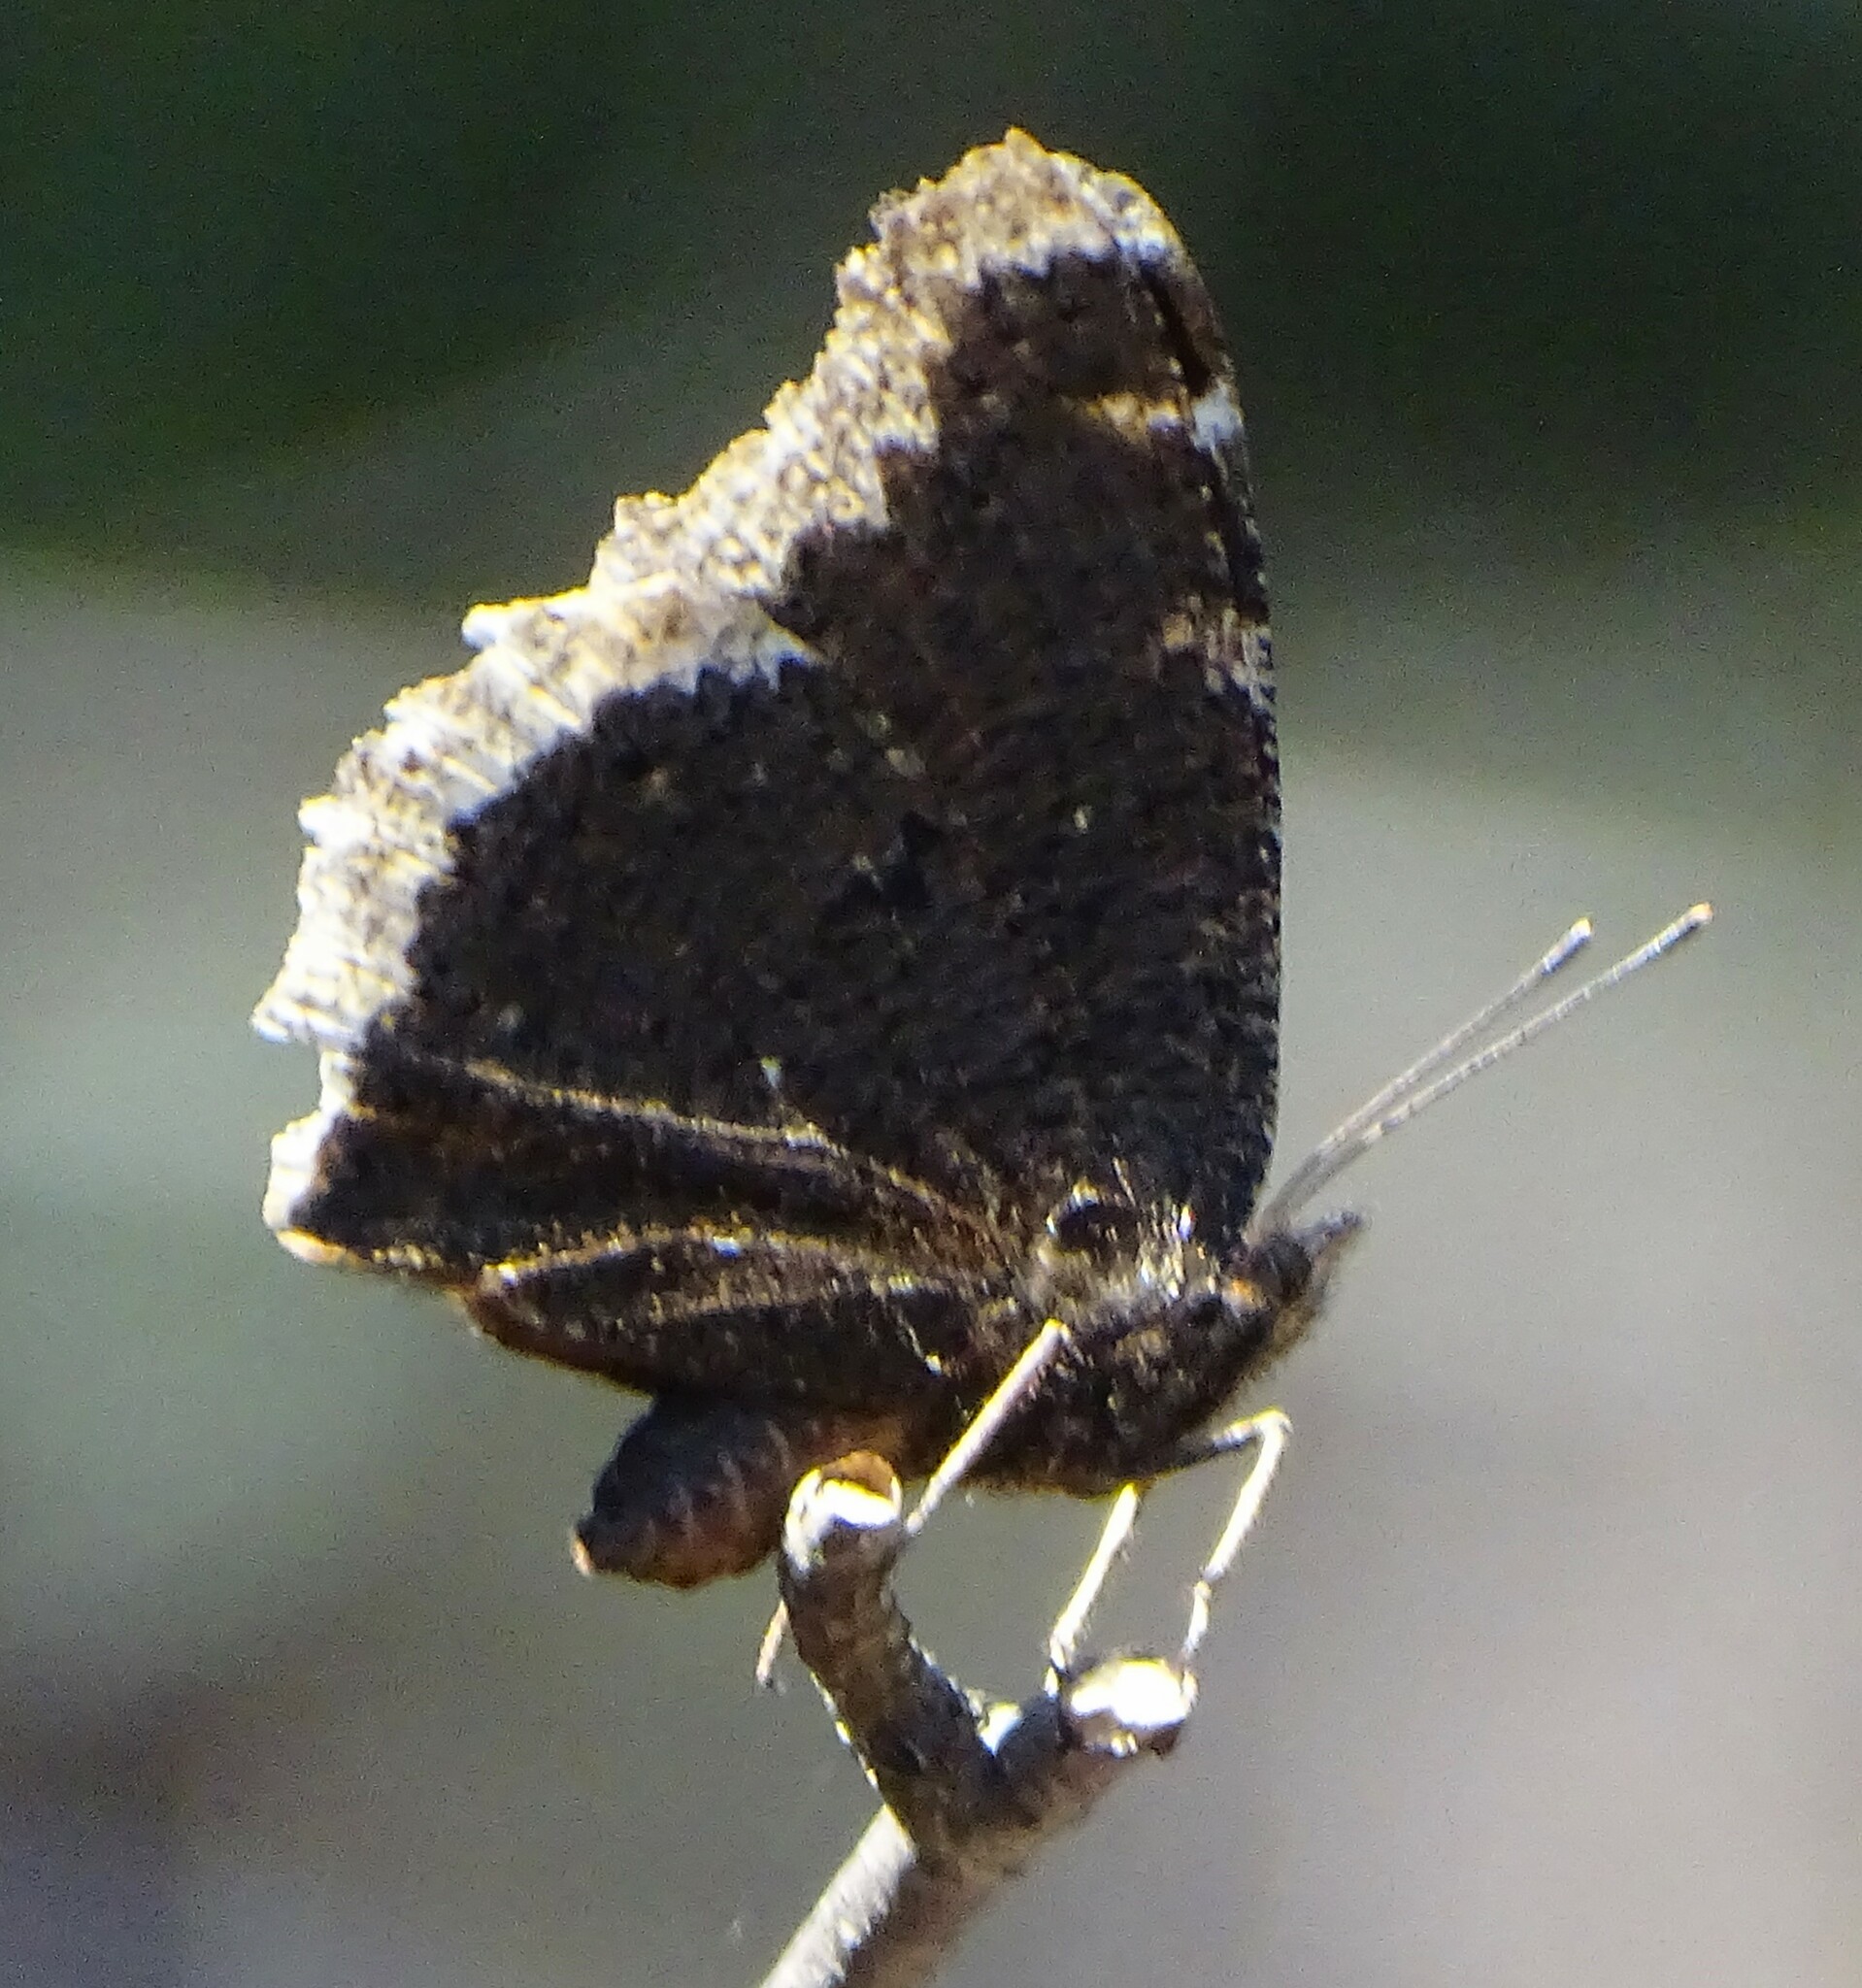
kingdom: Animalia
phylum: Arthropoda
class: Insecta
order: Lepidoptera
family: Nymphalidae
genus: Nymphalis
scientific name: Nymphalis antiopa
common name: Camberwell beauty
